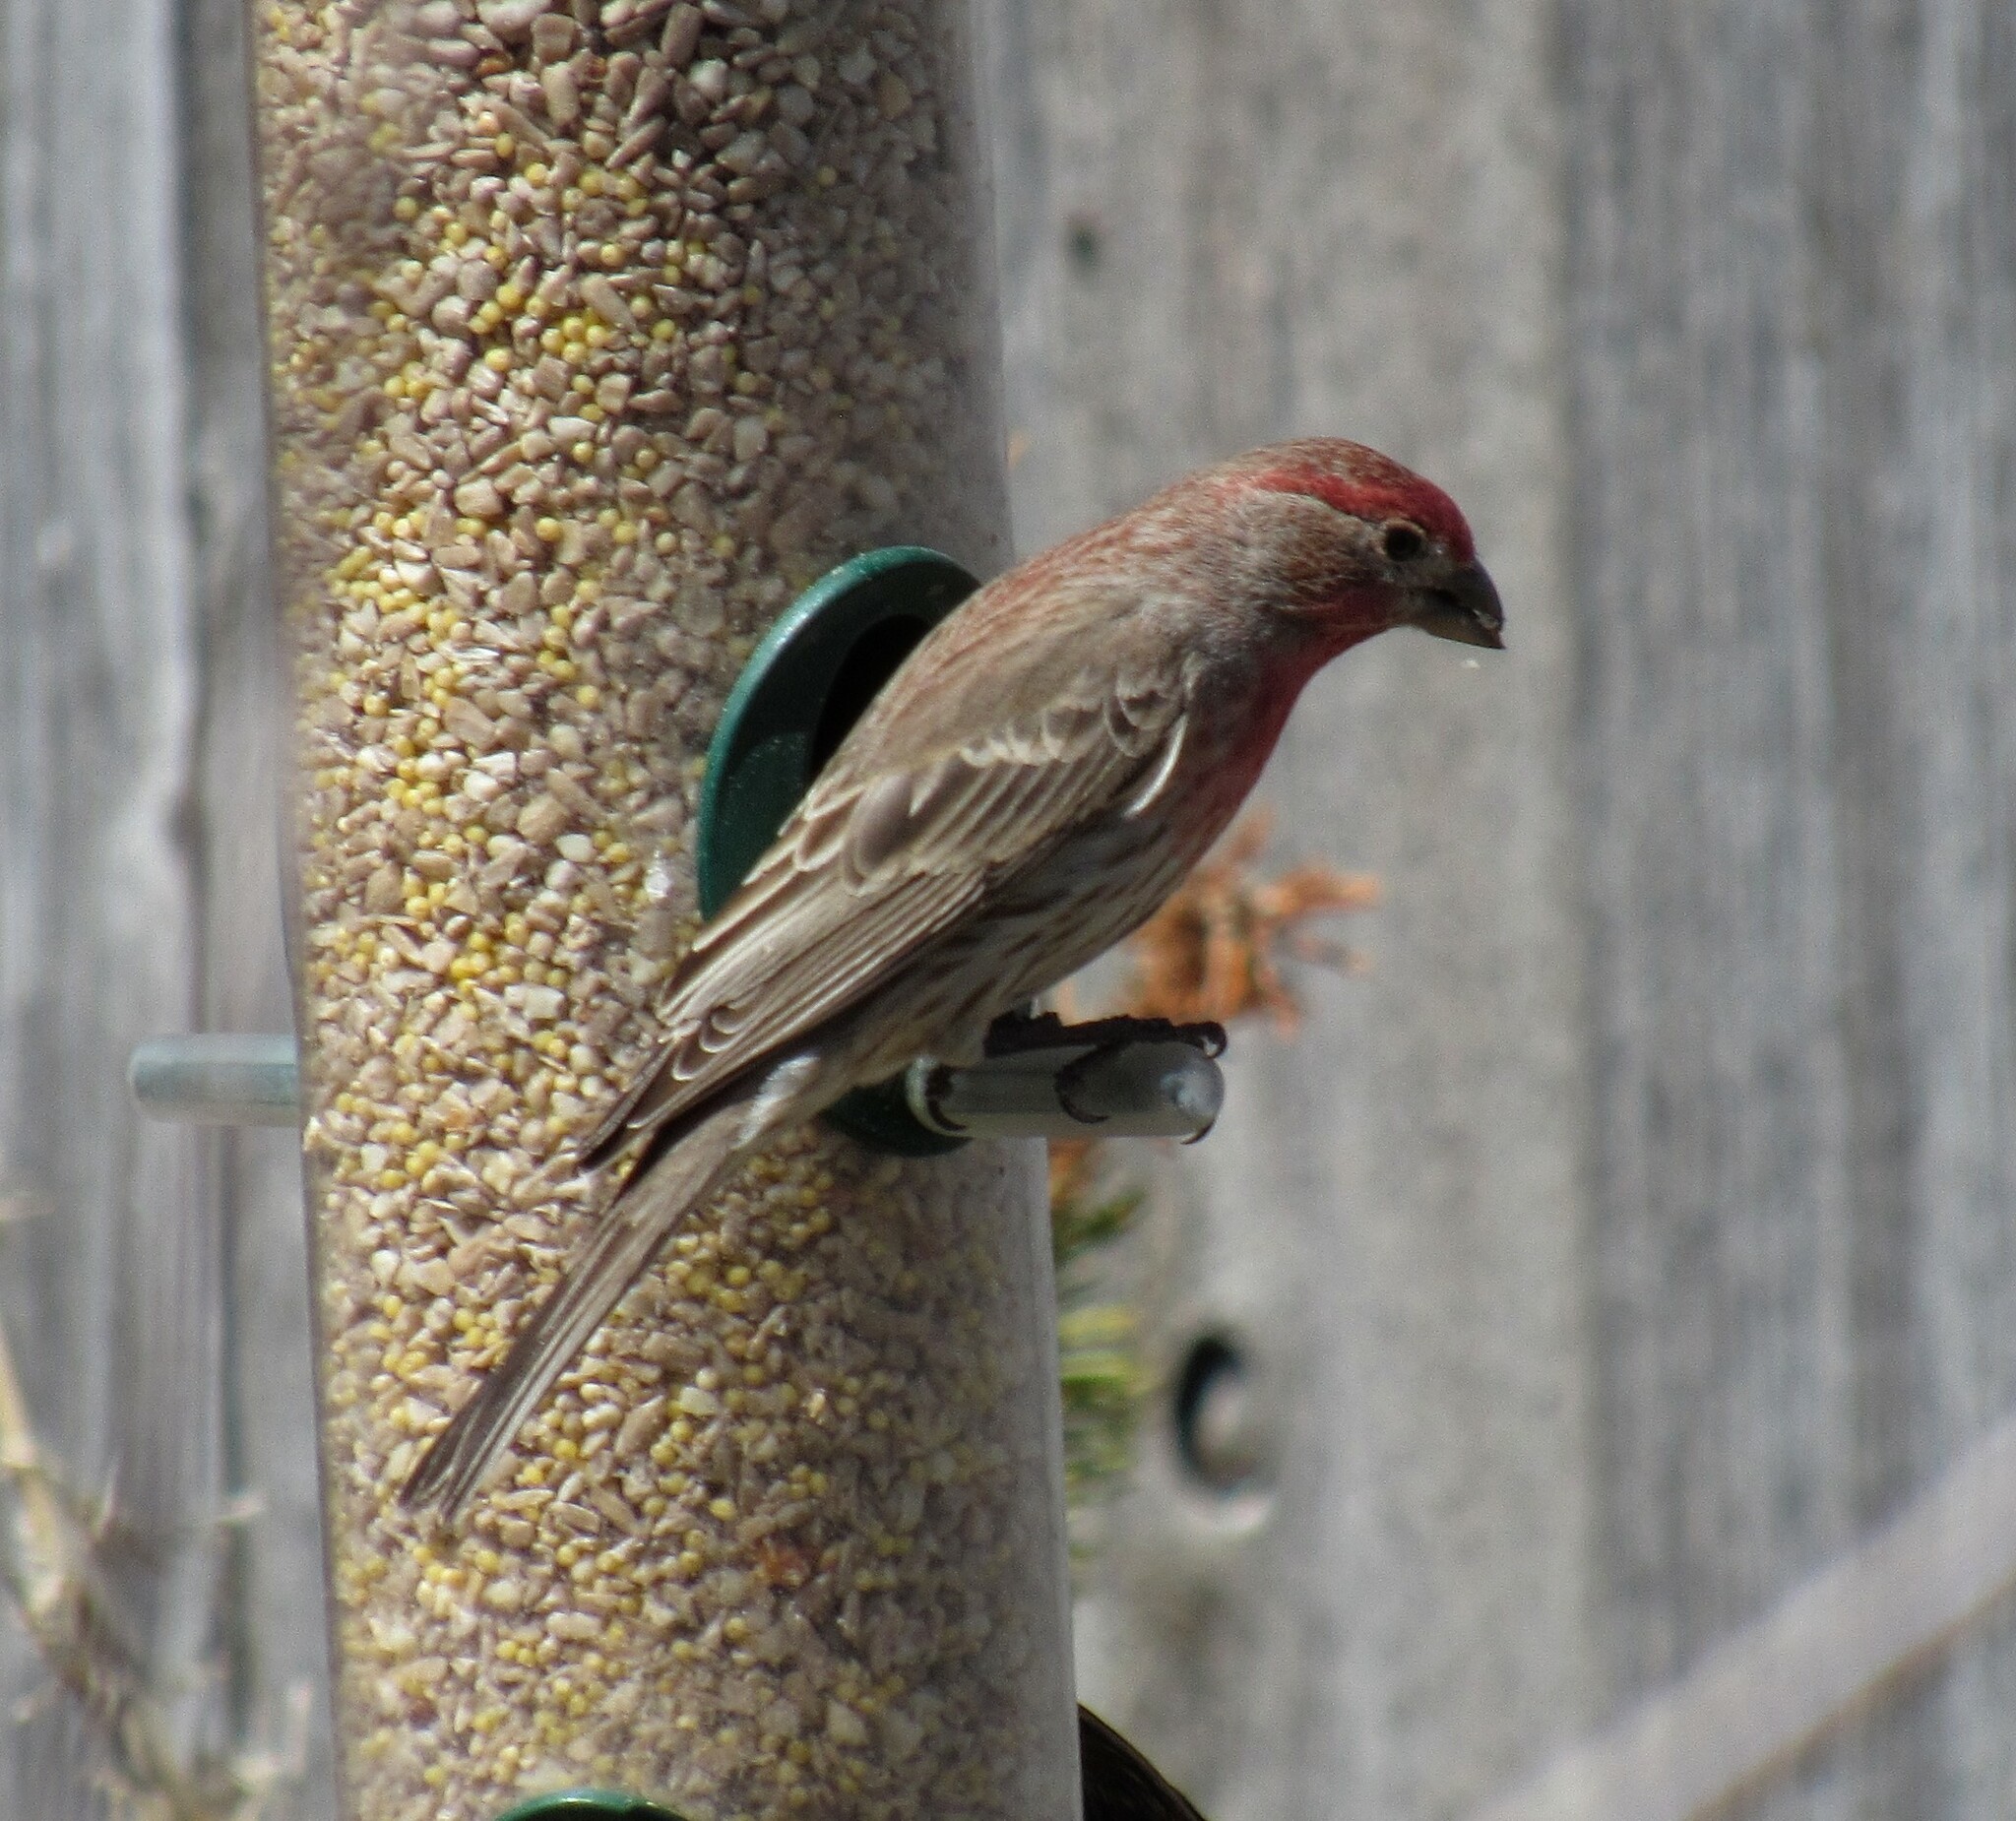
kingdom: Animalia
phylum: Chordata
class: Aves
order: Passeriformes
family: Fringillidae
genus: Haemorhous
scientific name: Haemorhous mexicanus
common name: House finch
